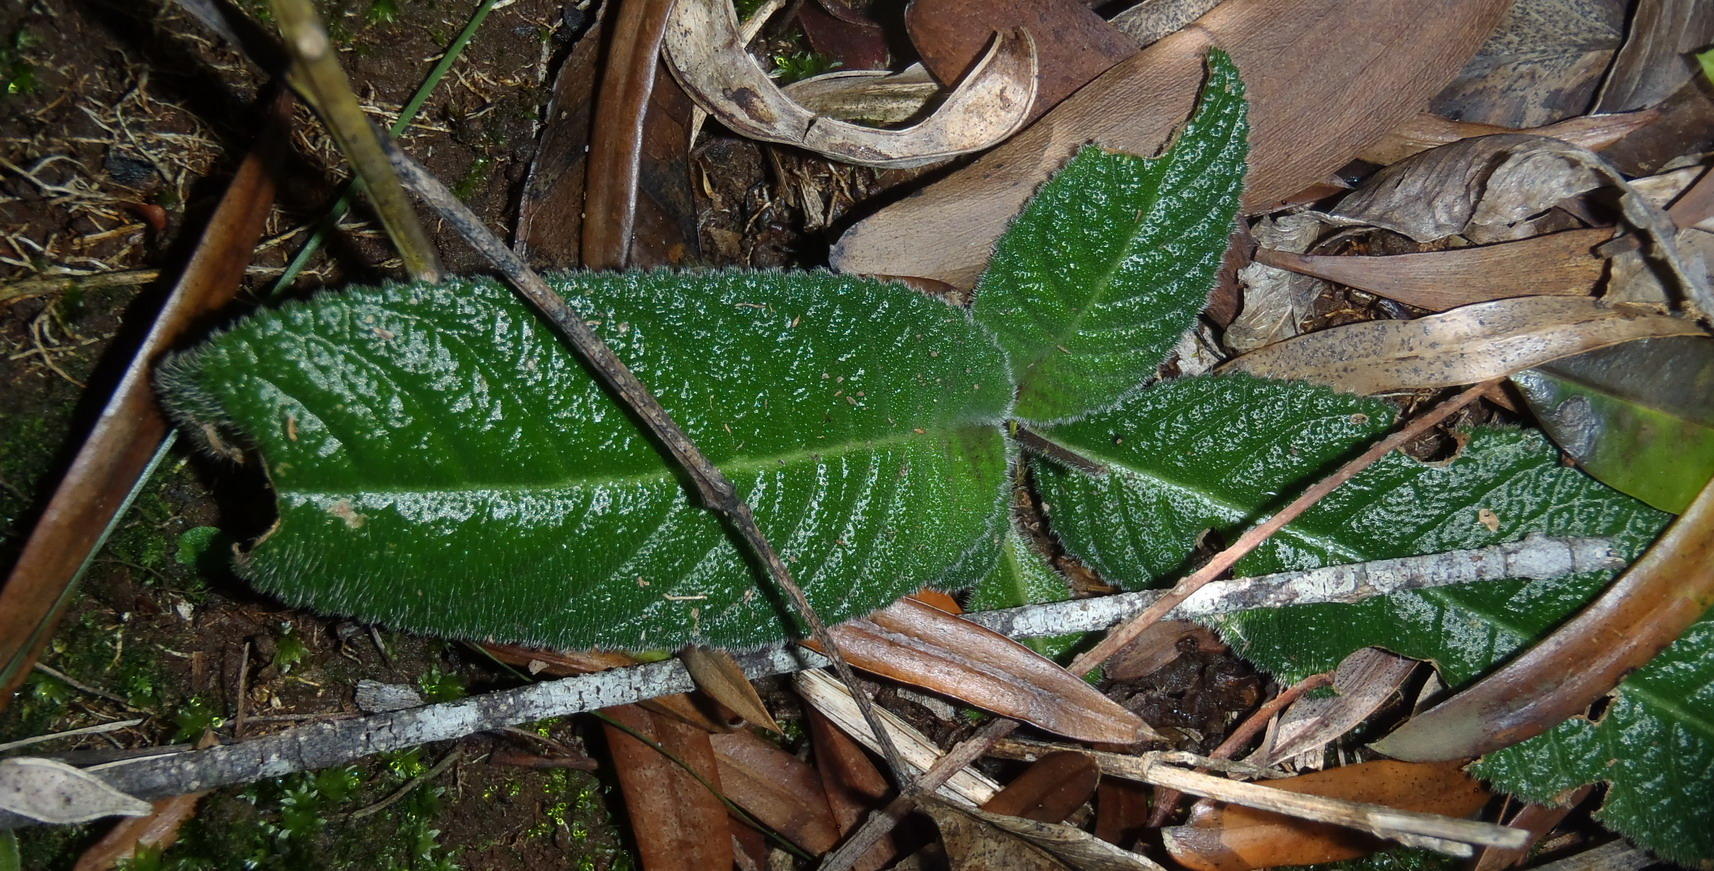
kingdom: Plantae
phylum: Tracheophyta
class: Magnoliopsida
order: Lamiales
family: Gesneriaceae
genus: Streptocarpus
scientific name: Streptocarpus rexii
